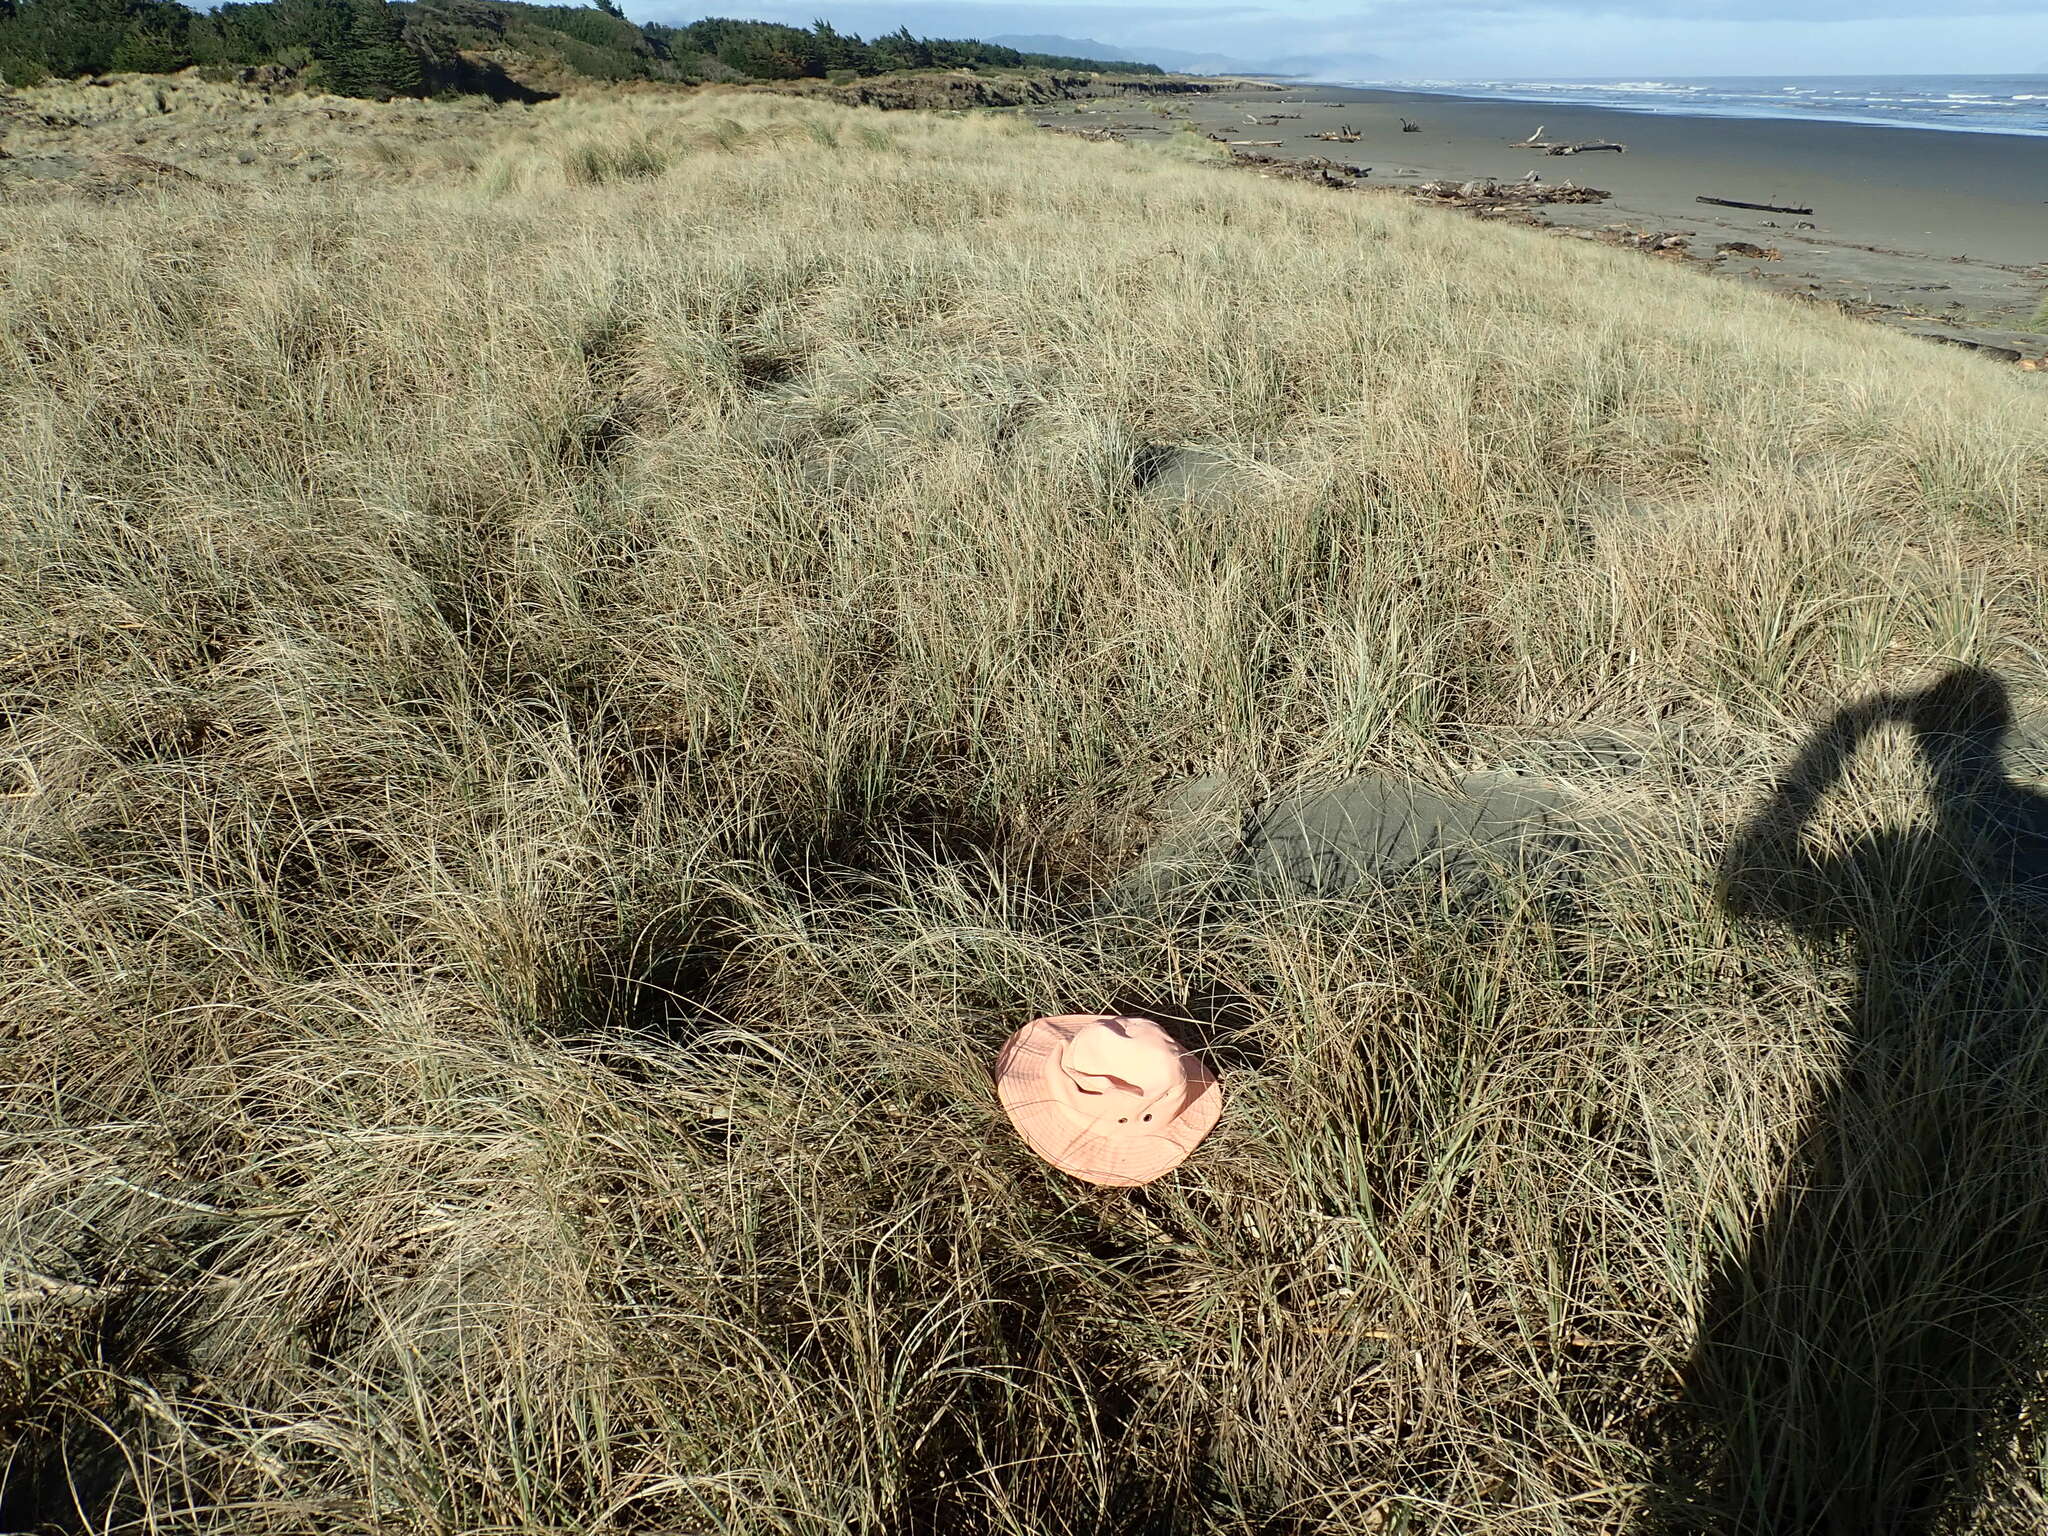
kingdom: Animalia
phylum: Arthropoda
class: Malacostraca
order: Isopoda
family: Porcellionidae
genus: Porcellio
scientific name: Porcellio scaber
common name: Common rough woodlouse
